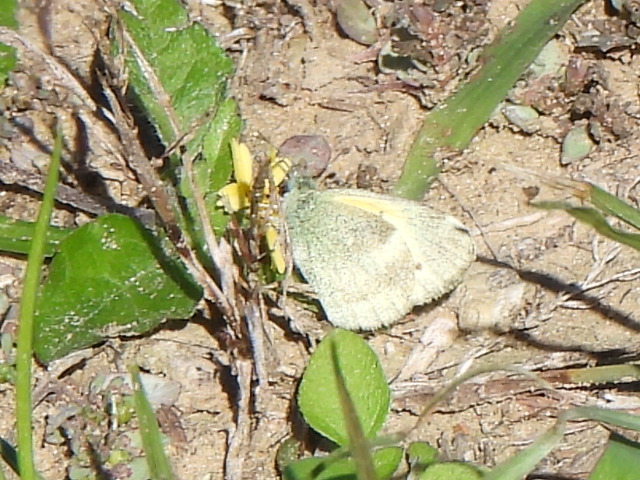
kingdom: Animalia
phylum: Arthropoda
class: Insecta
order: Lepidoptera
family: Pieridae
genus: Nathalis
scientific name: Nathalis iole
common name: Dainty sulphur
